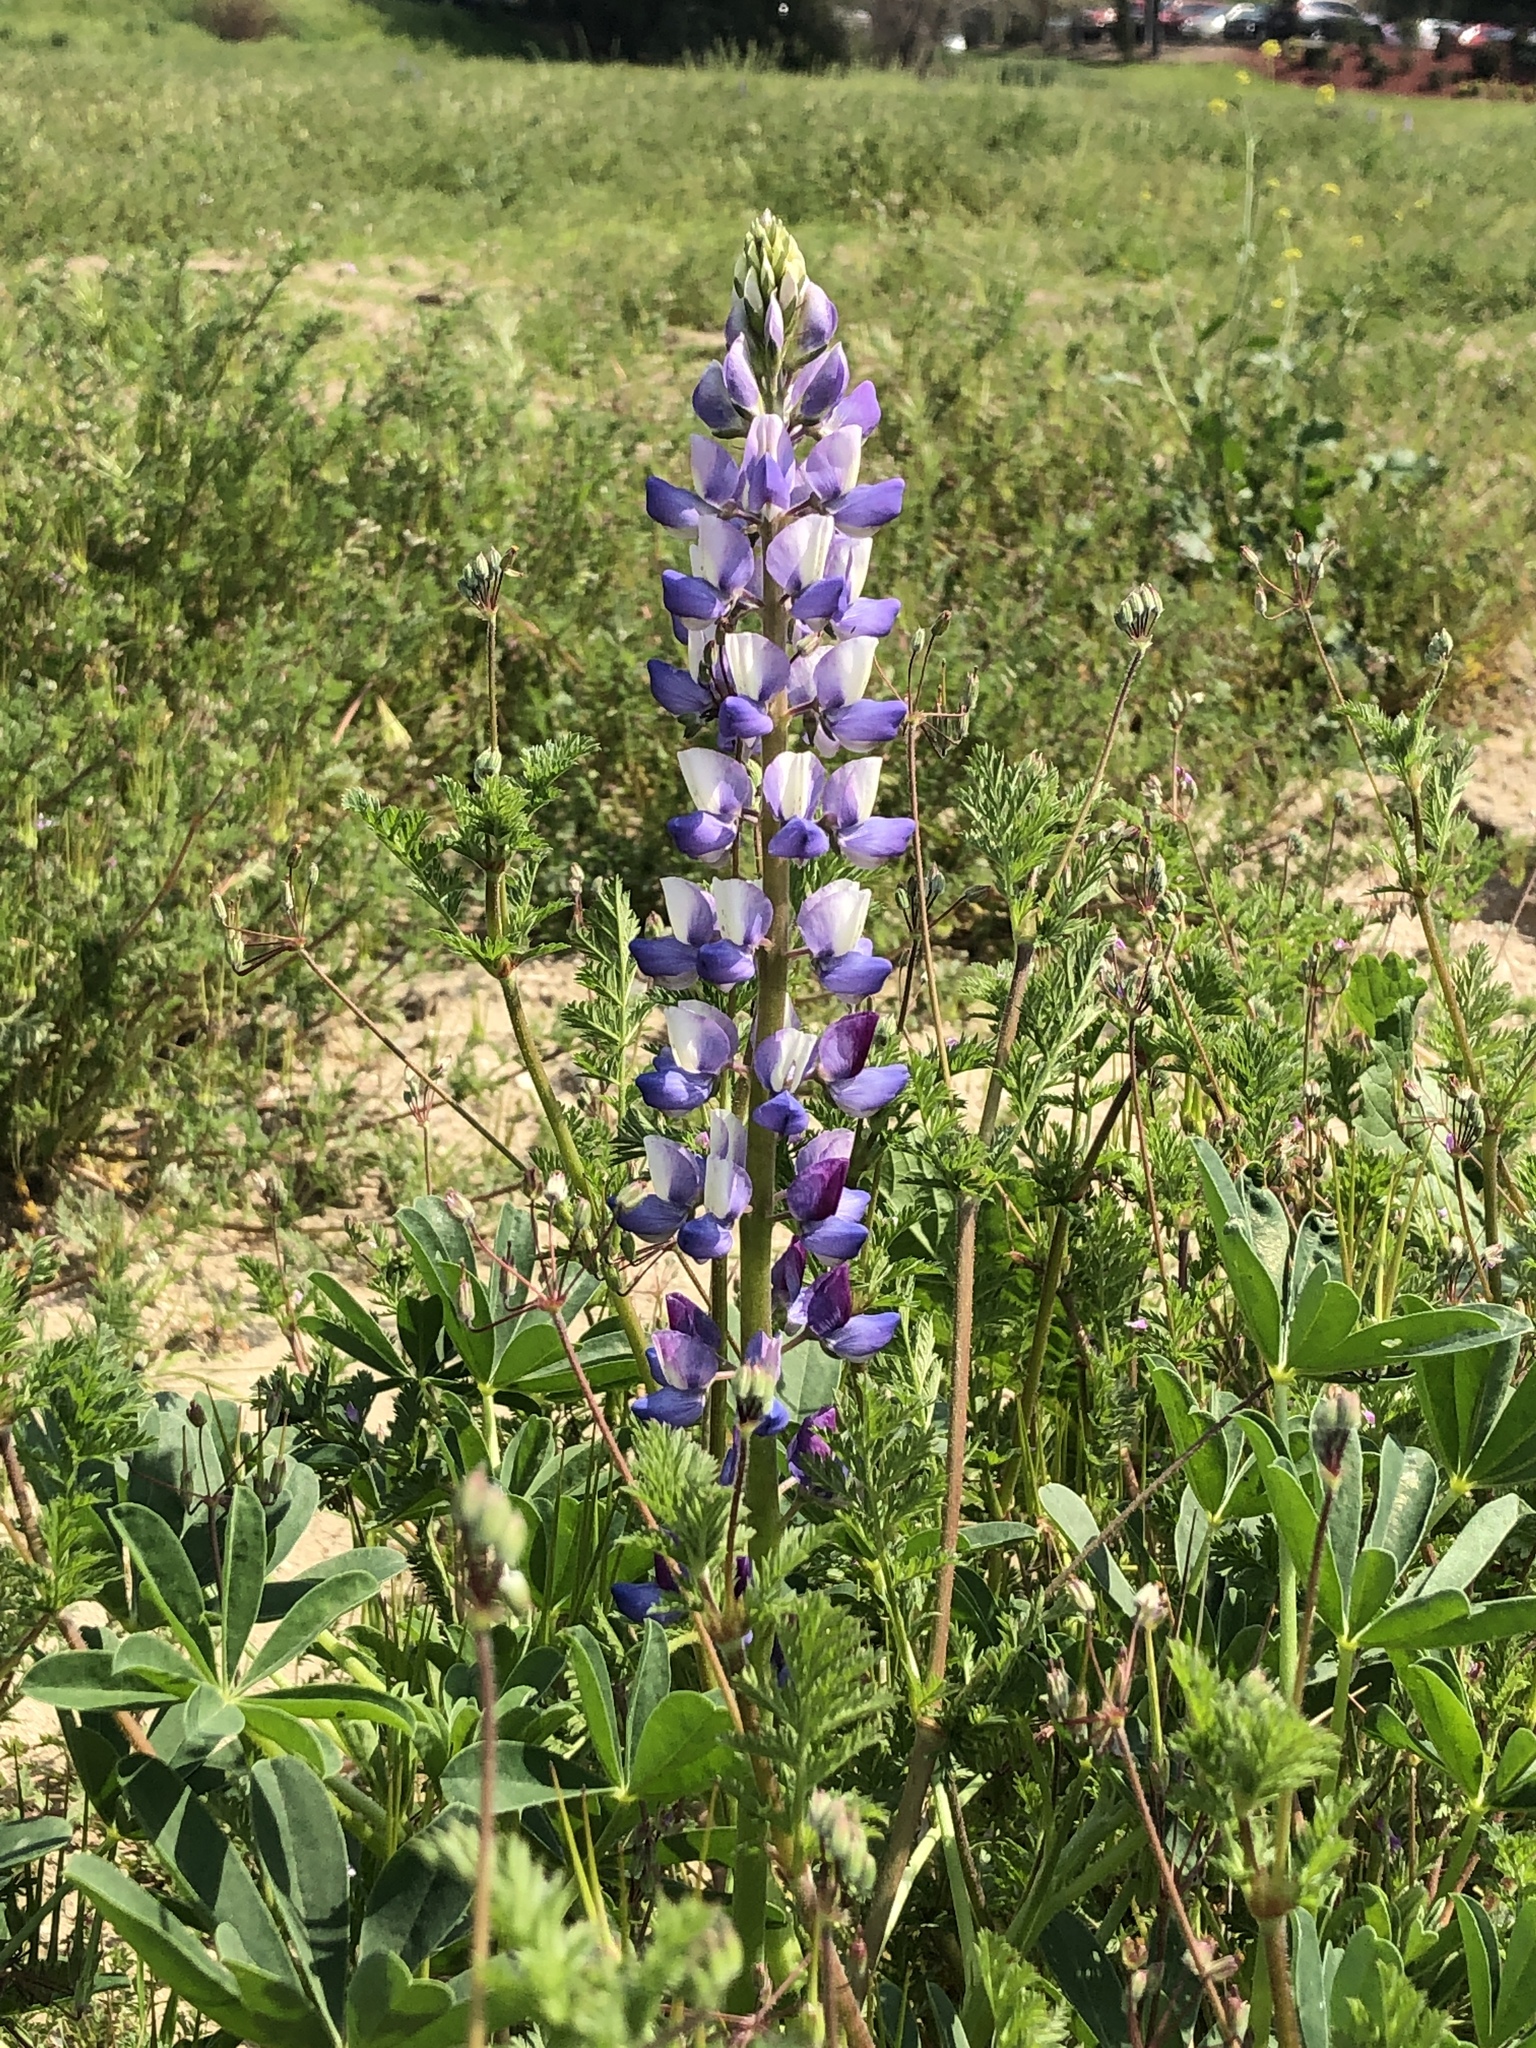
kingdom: Plantae
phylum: Tracheophyta
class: Magnoliopsida
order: Fabales
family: Fabaceae
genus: Lupinus
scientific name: Lupinus succulentus
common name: Arroyo lupine
